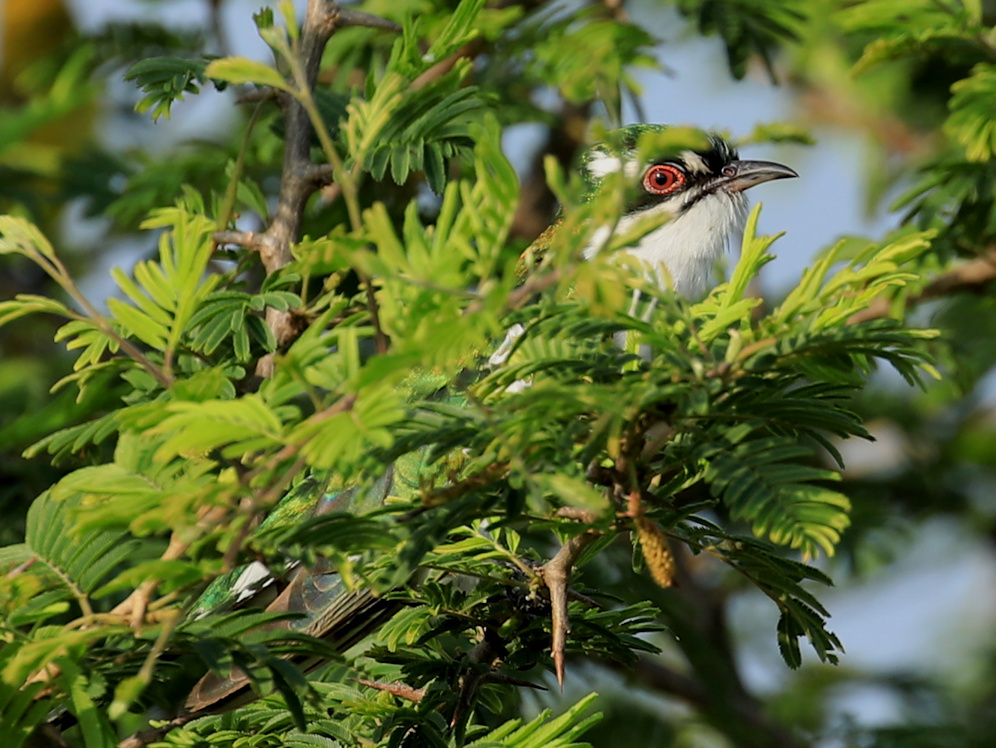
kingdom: Animalia
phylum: Chordata
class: Aves
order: Cuculiformes
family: Cuculidae
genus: Chrysococcyx
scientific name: Chrysococcyx caprius
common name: Diederik cuckoo
